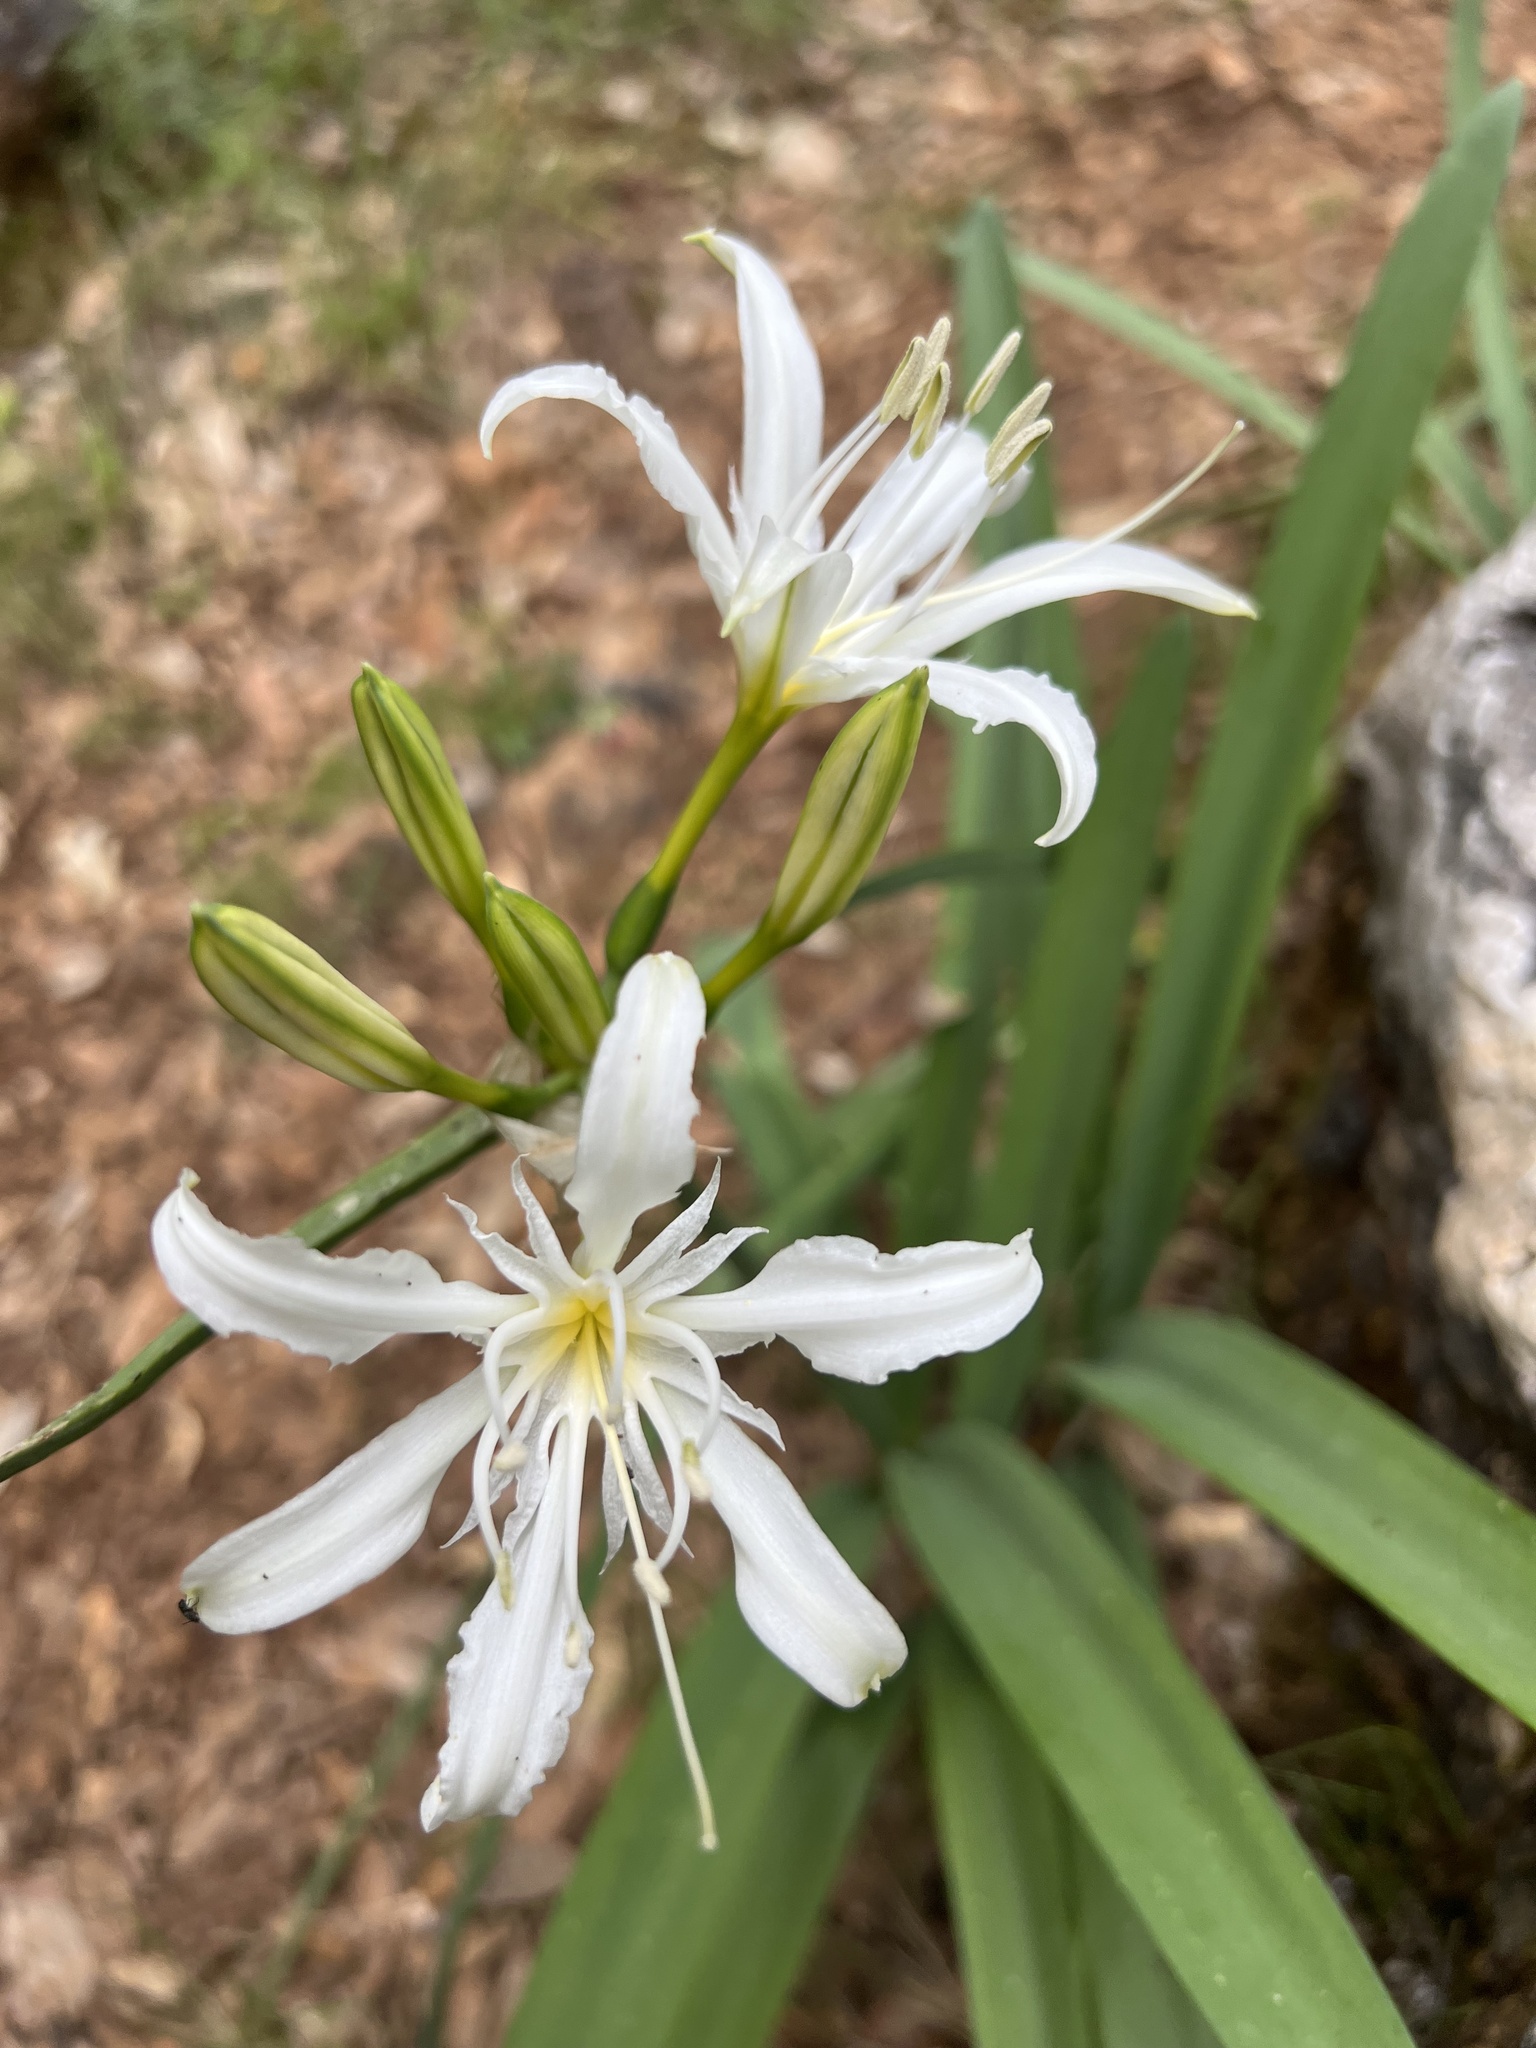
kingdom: Plantae
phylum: Tracheophyta
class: Liliopsida
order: Asparagales
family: Amaryllidaceae
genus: Pancratium
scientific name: Pancratium illyricum
